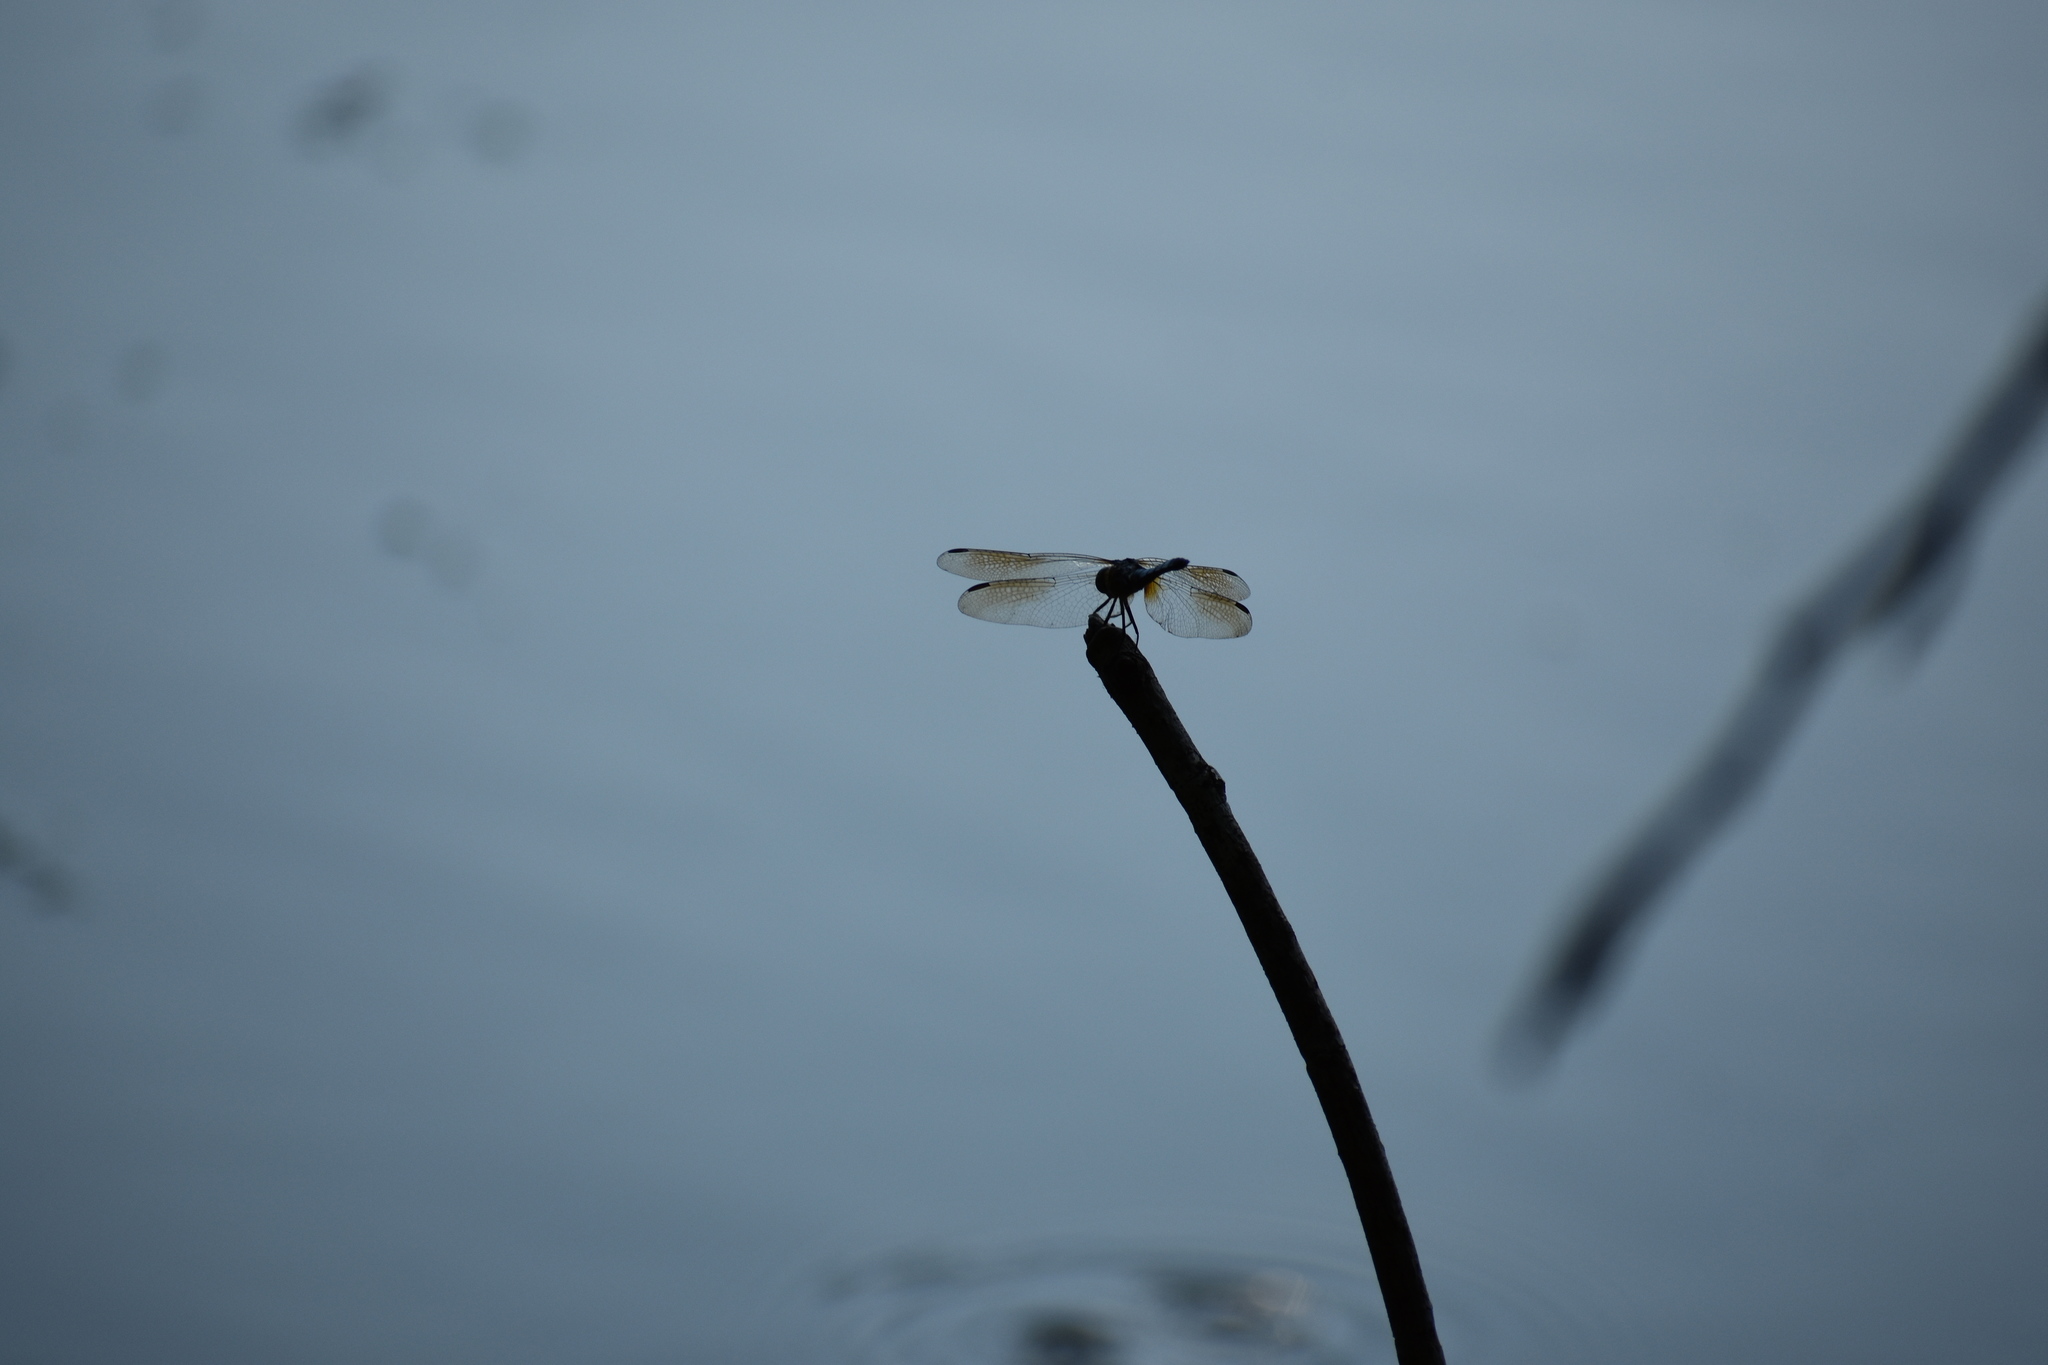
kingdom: Animalia
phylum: Arthropoda
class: Insecta
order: Odonata
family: Libellulidae
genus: Pachydiplax
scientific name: Pachydiplax longipennis
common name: Blue dasher
